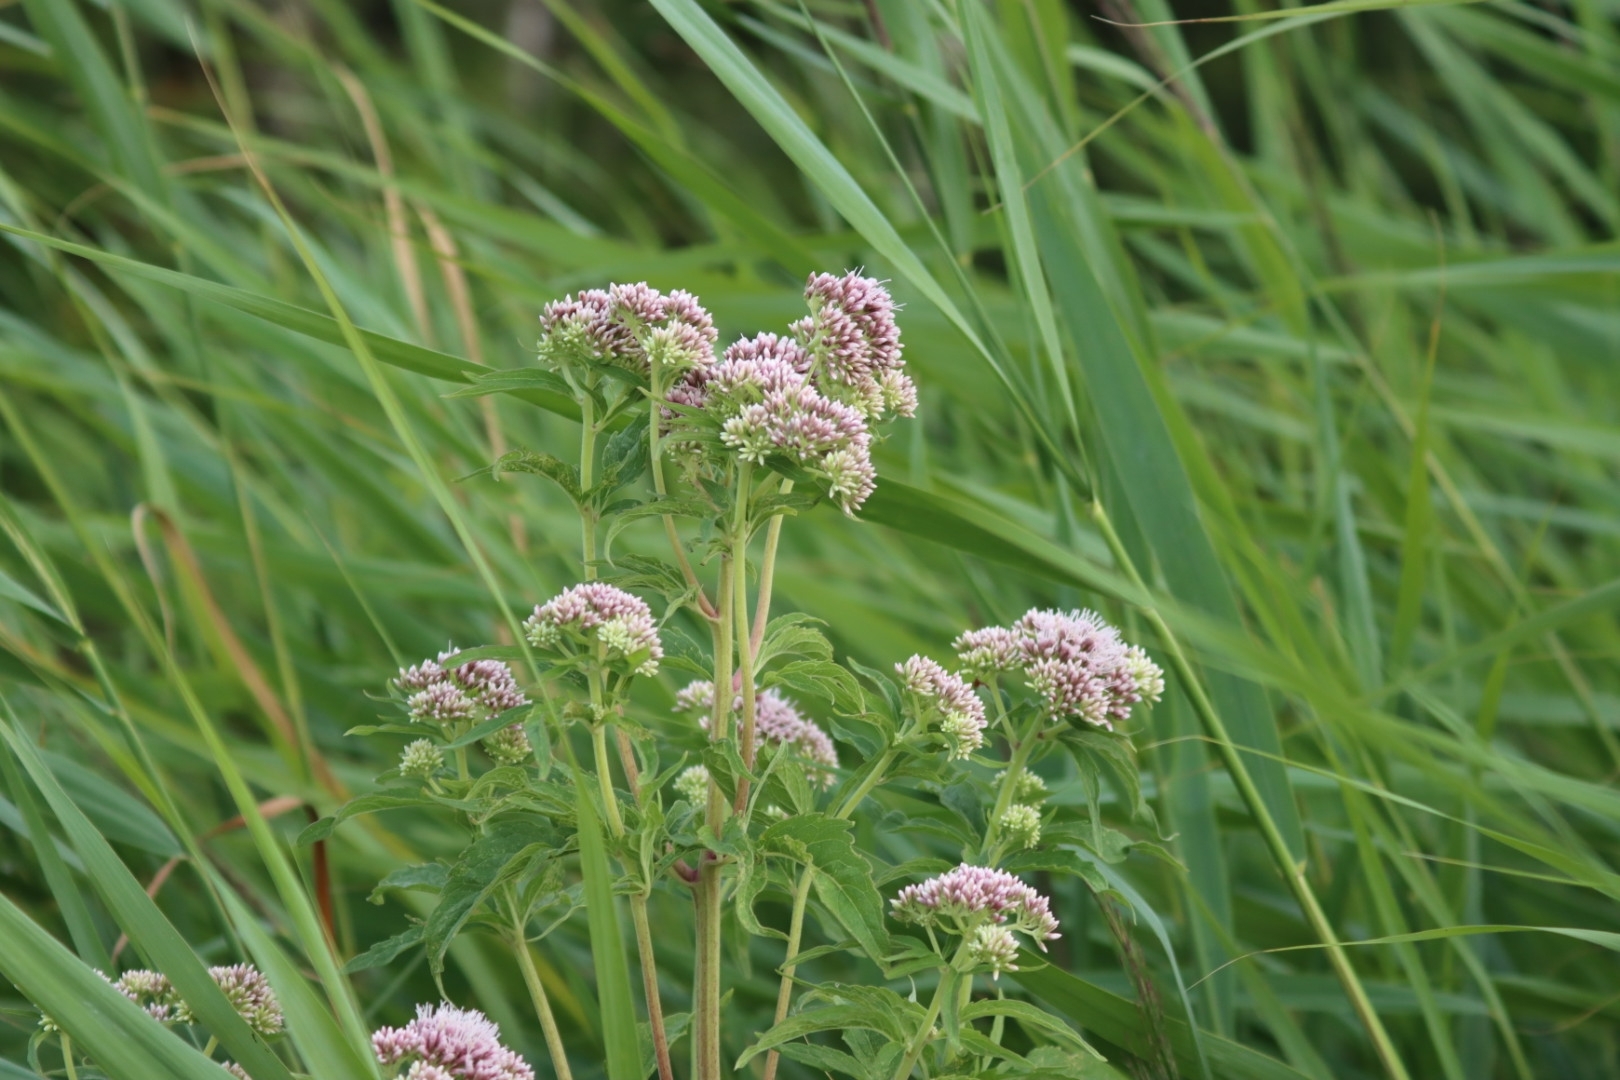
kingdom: Plantae
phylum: Tracheophyta
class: Magnoliopsida
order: Asterales
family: Asteraceae
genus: Eupatorium
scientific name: Eupatorium cannabinum
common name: Hemp-agrimony
